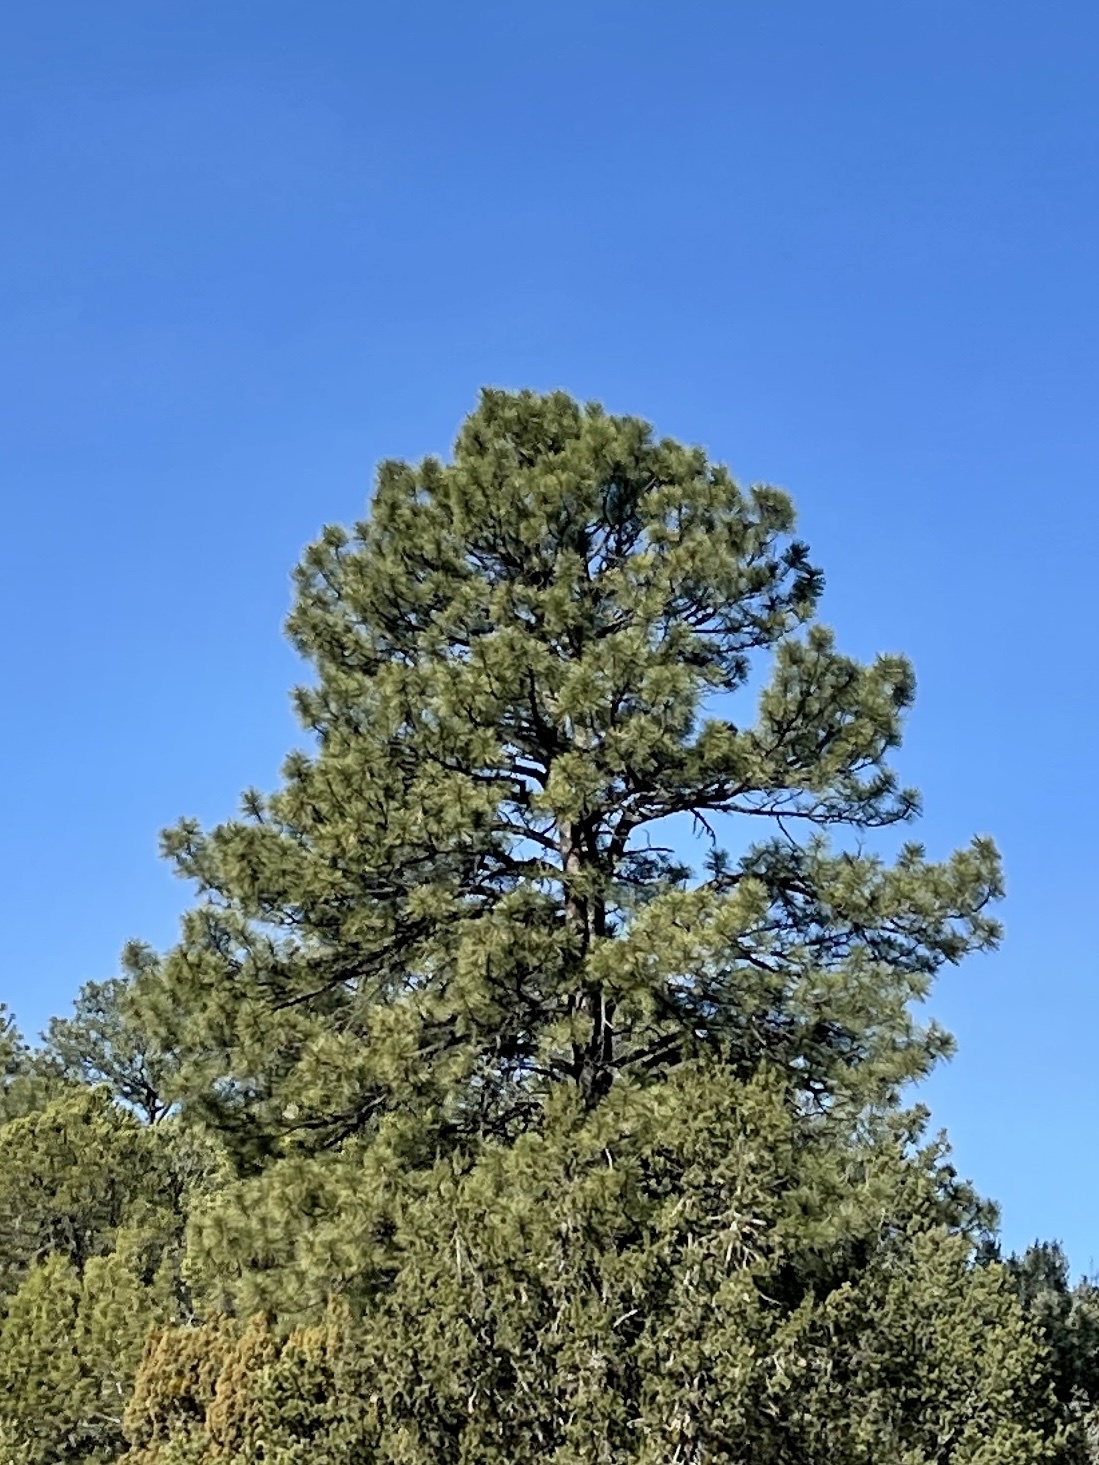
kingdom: Plantae
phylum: Tracheophyta
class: Pinopsida
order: Pinales
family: Pinaceae
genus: Pinus
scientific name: Pinus ponderosa
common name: Western yellow-pine
